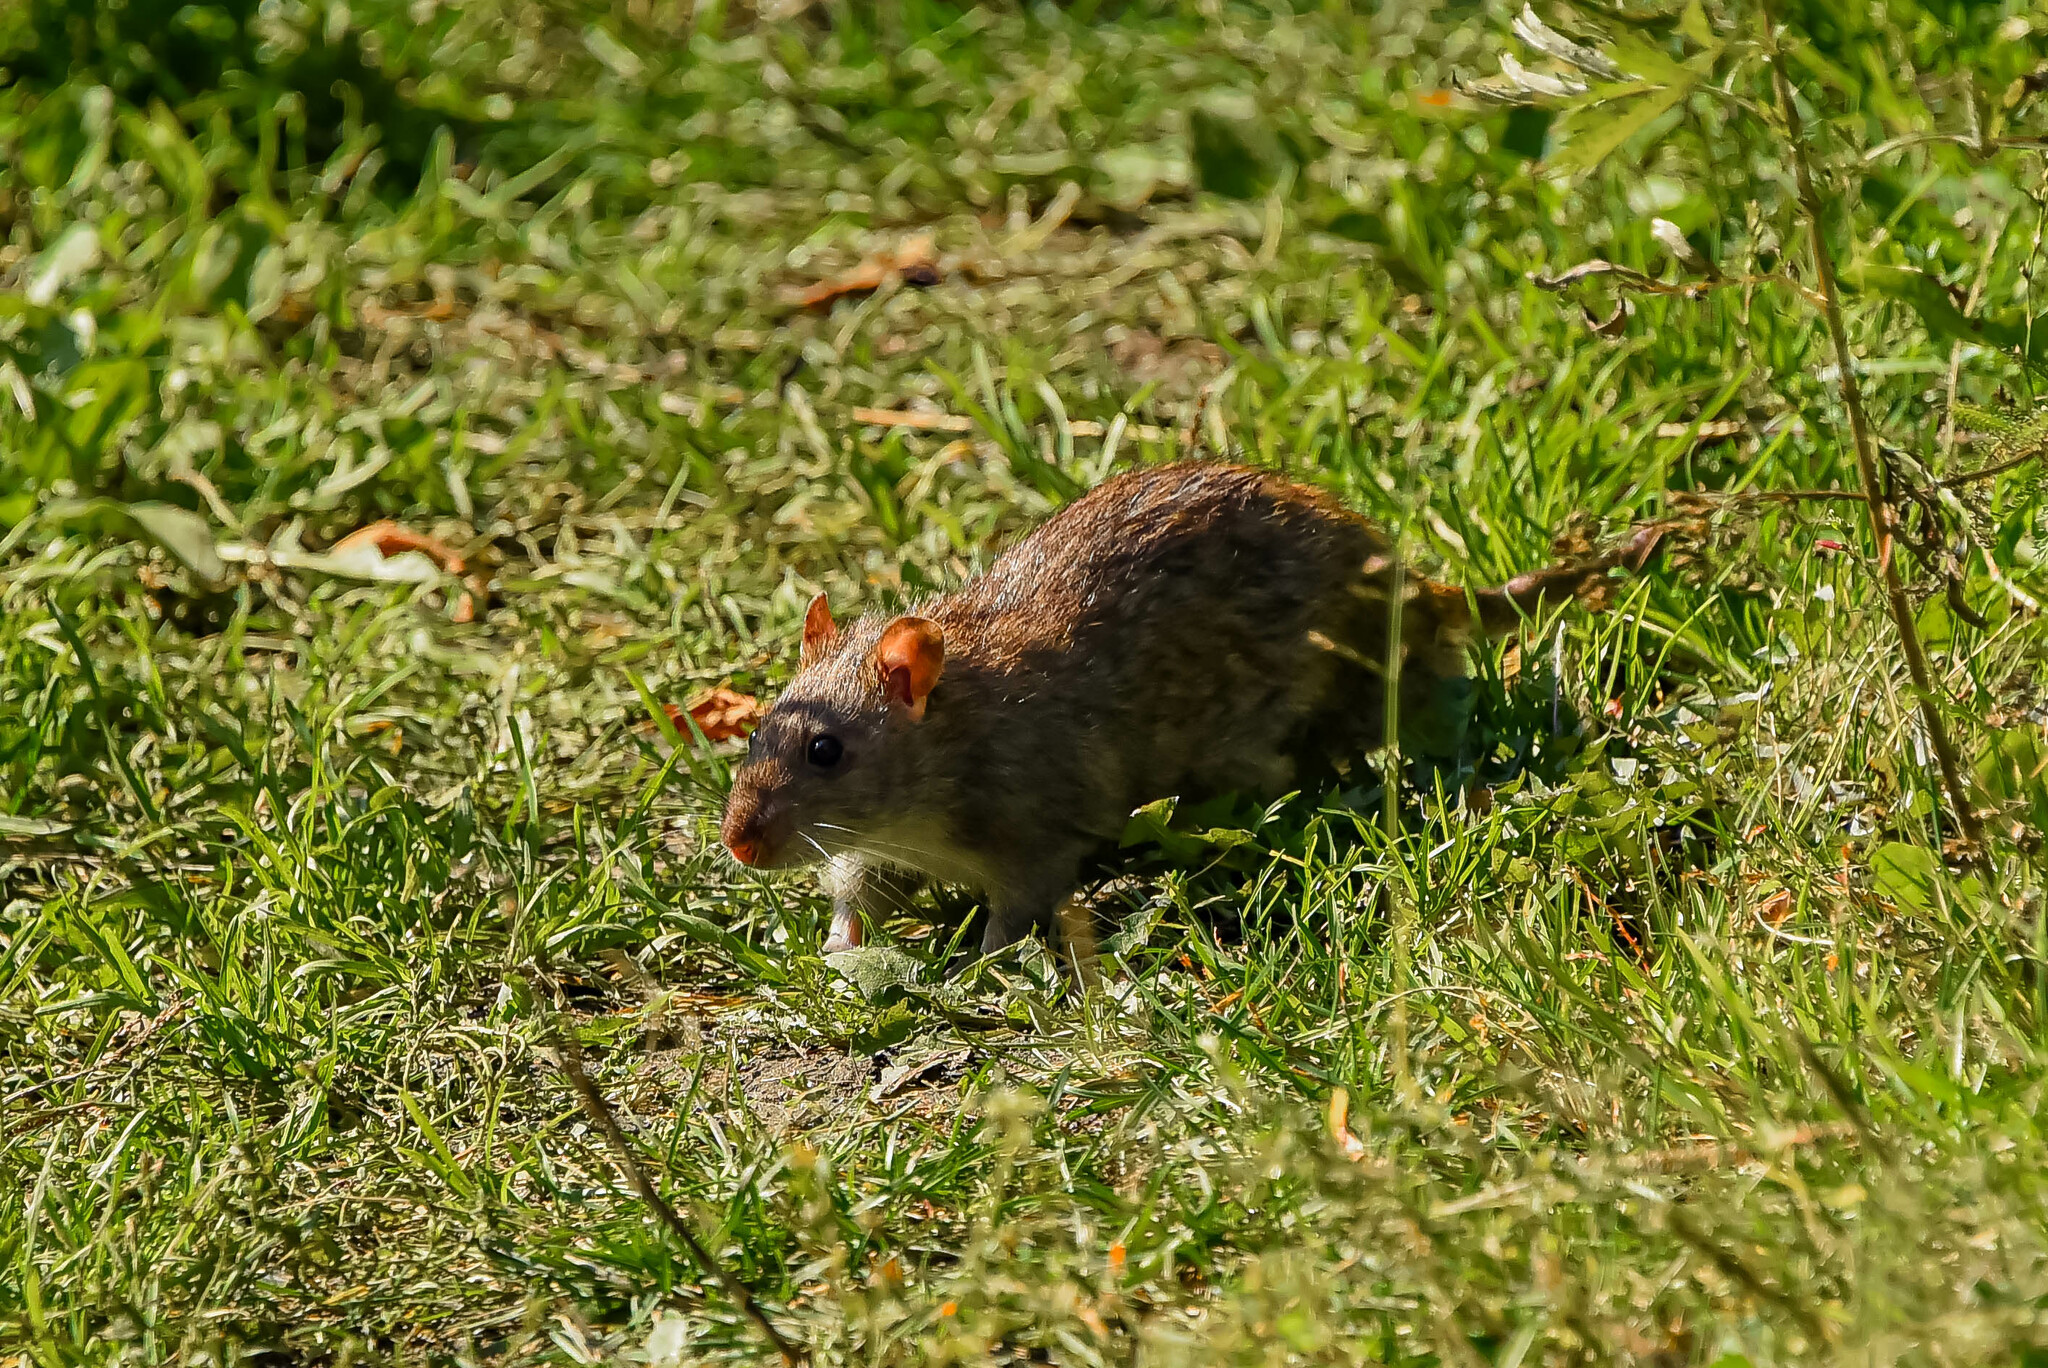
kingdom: Animalia
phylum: Chordata
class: Mammalia
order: Rodentia
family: Muridae
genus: Rattus
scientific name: Rattus norvegicus
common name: Brown rat
